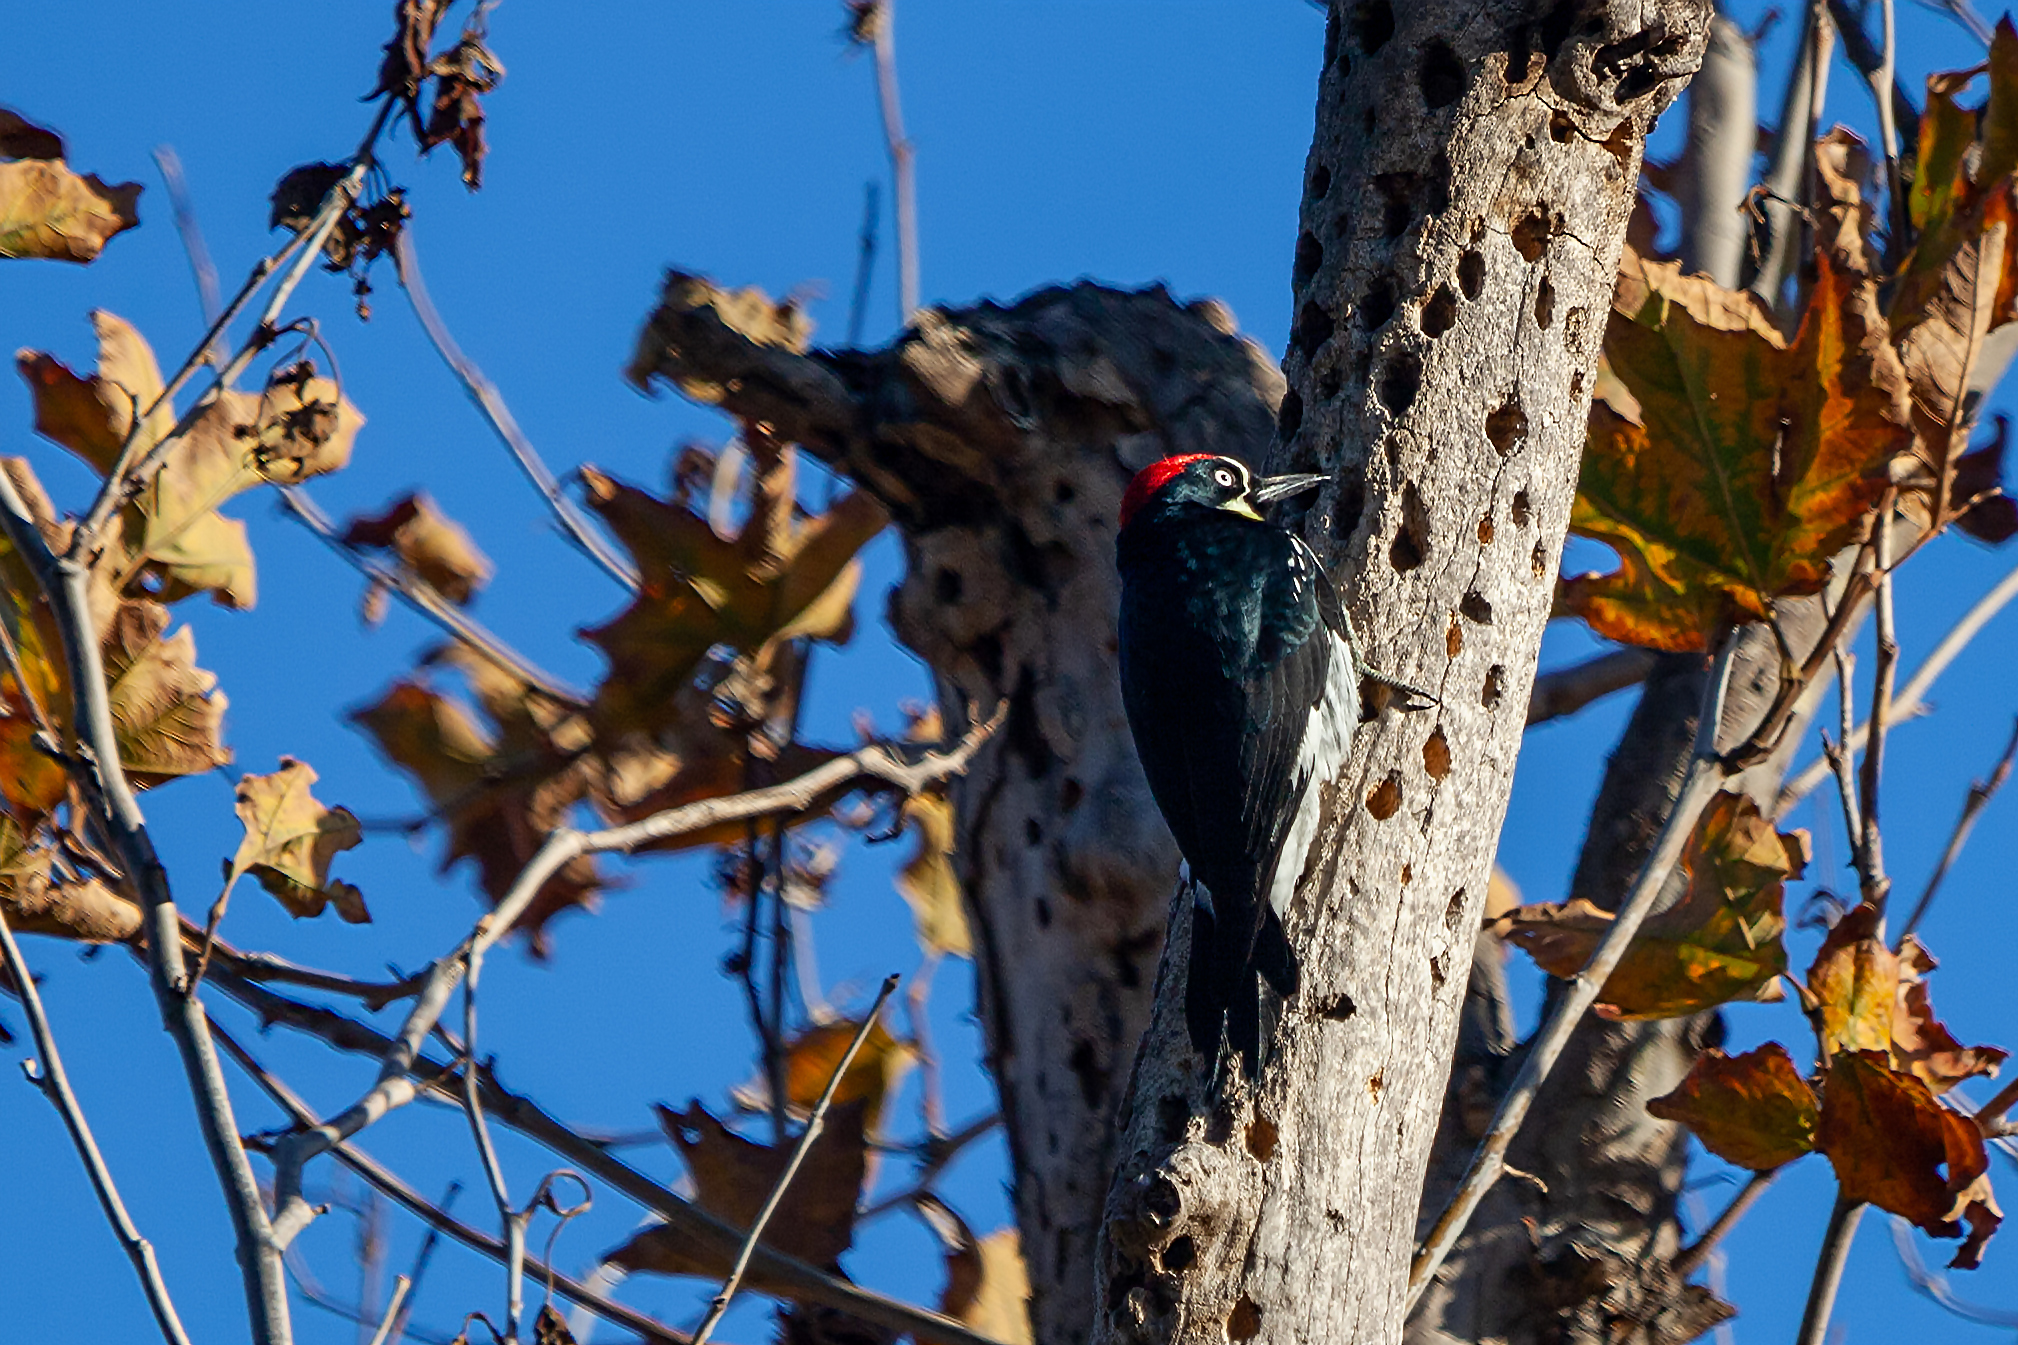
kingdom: Animalia
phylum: Chordata
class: Aves
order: Piciformes
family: Picidae
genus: Melanerpes
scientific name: Melanerpes formicivorus
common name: Acorn woodpecker
